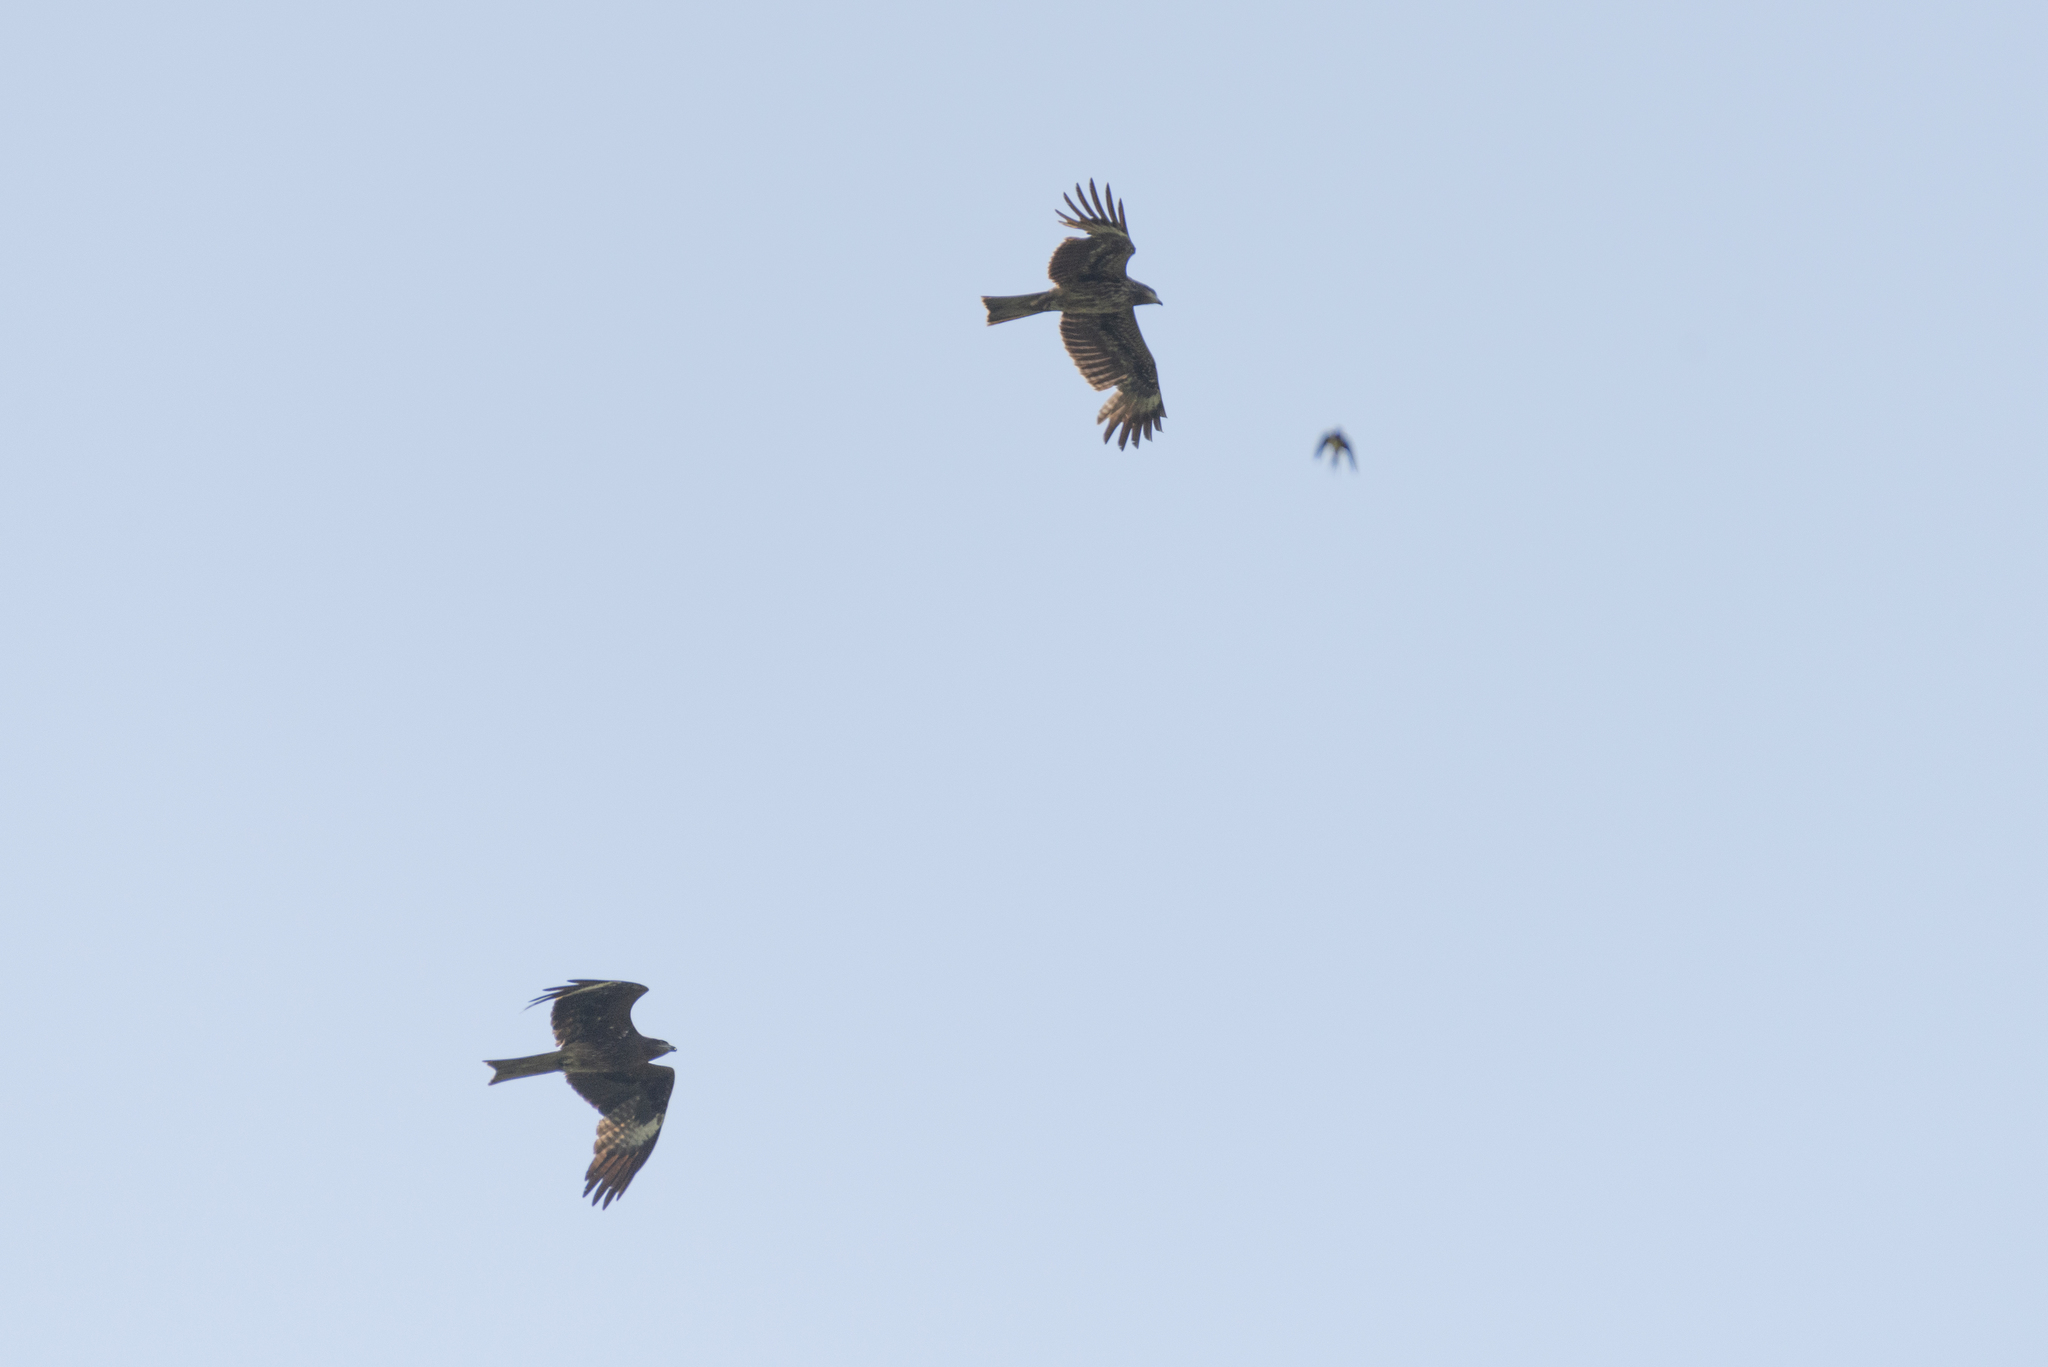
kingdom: Animalia
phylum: Chordata
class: Aves
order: Accipitriformes
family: Accipitridae
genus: Milvus
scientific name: Milvus migrans
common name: Black kite
